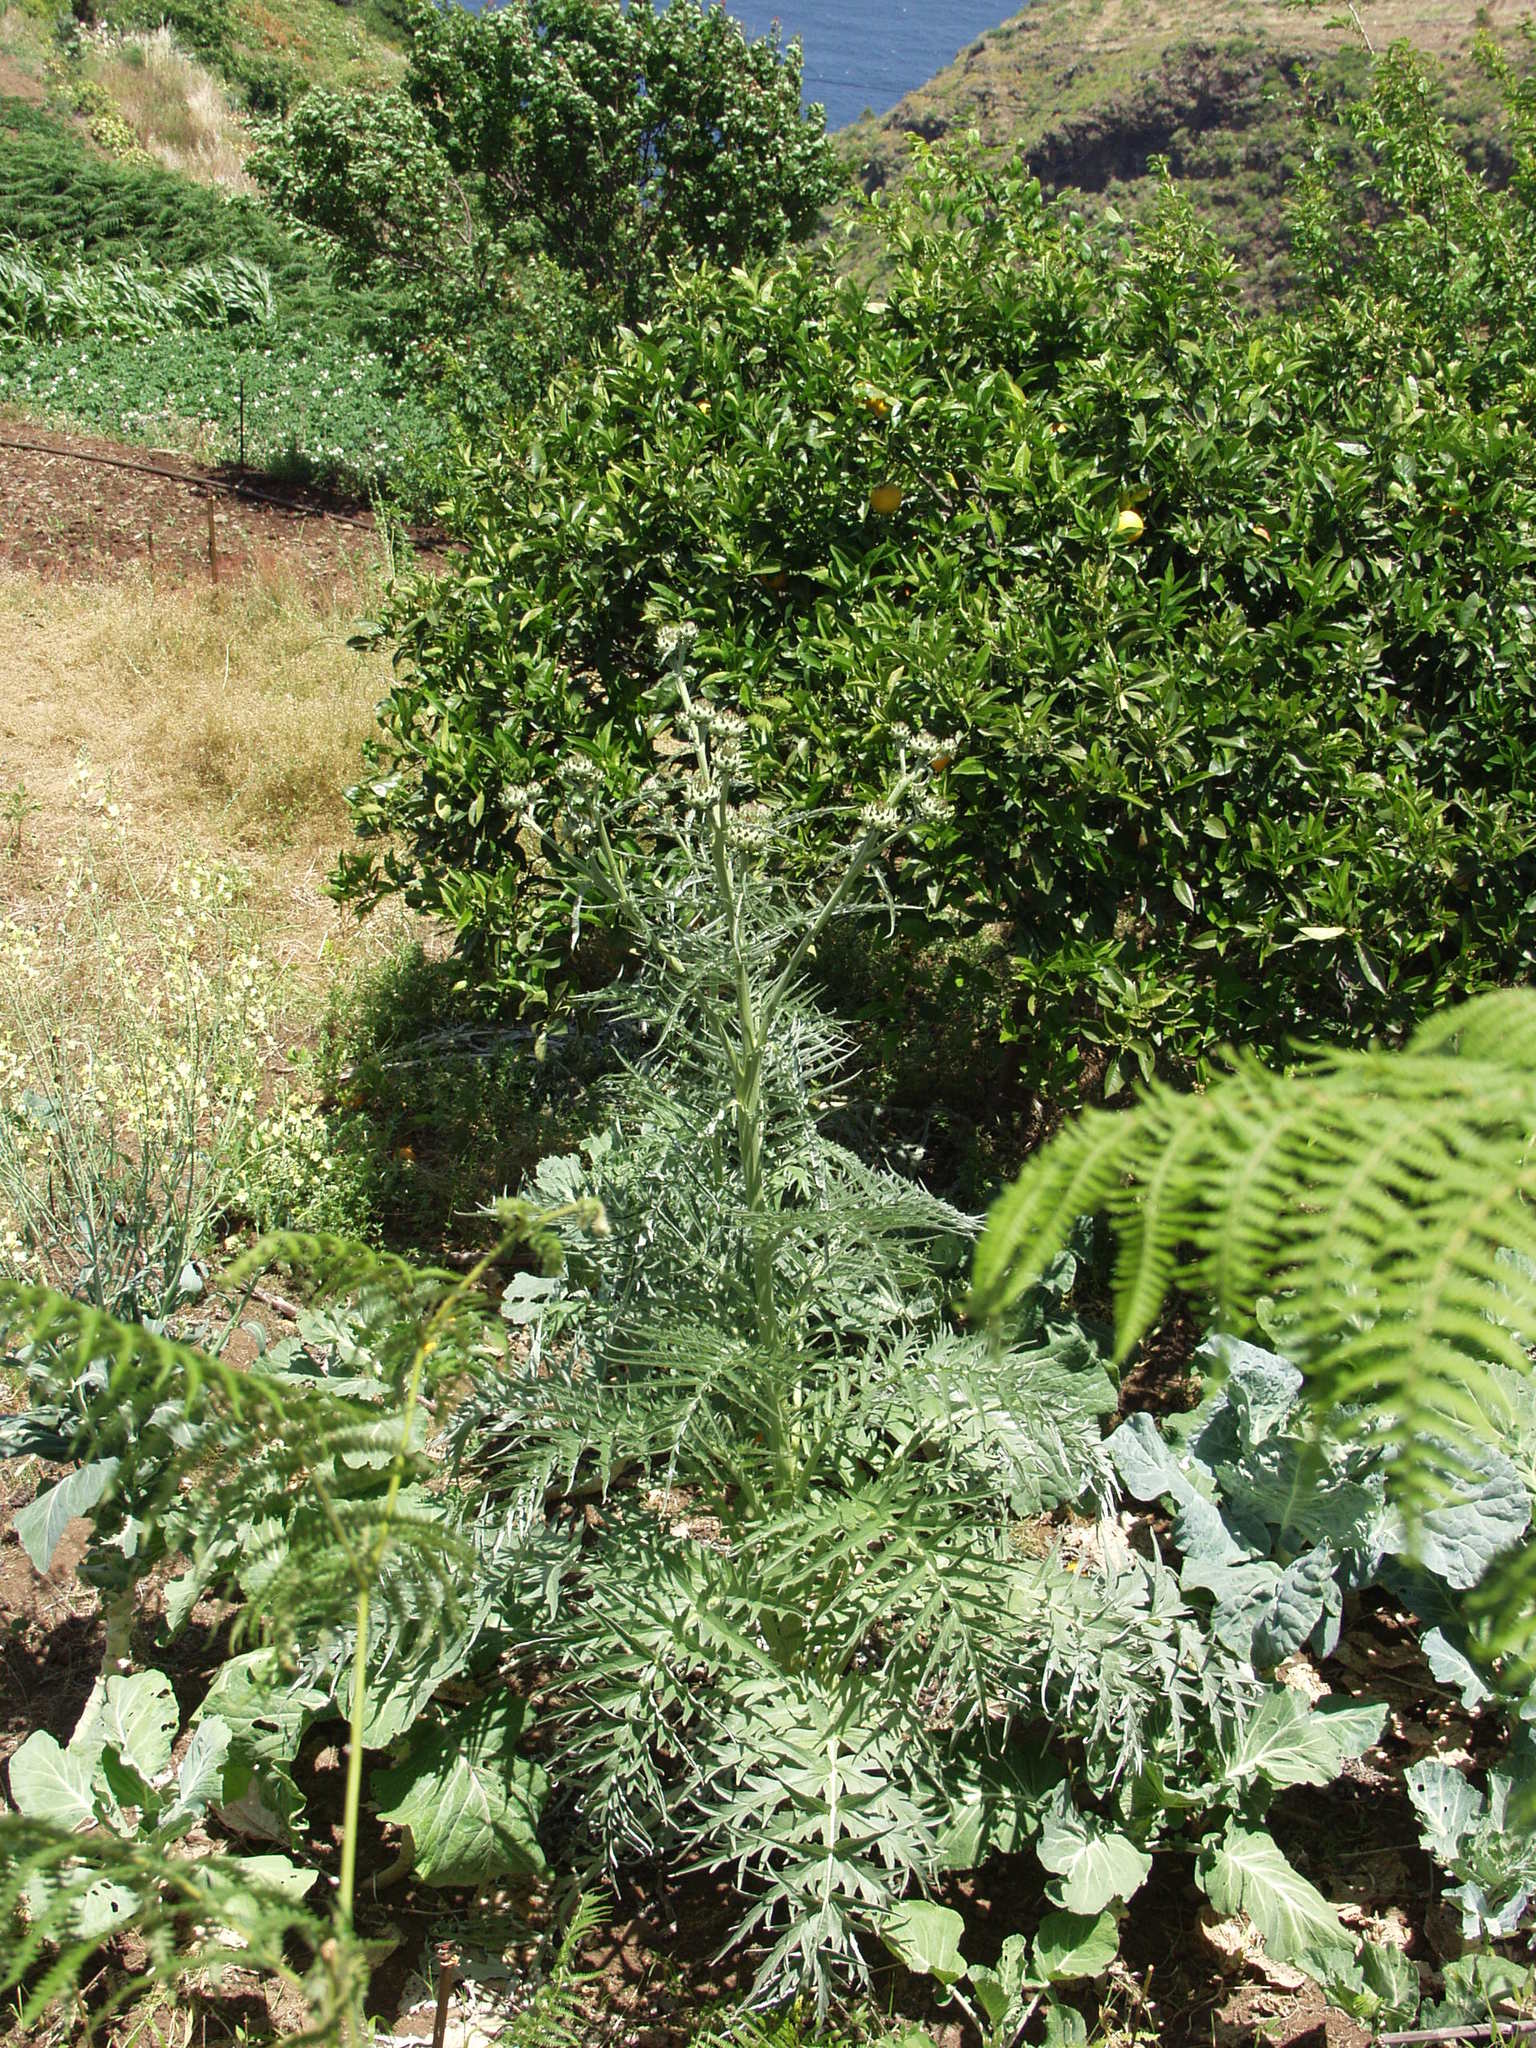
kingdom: Plantae
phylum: Tracheophyta
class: Magnoliopsida
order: Asterales
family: Asteraceae
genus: Cynara
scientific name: Cynara cardunculus
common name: Globe artichoke
